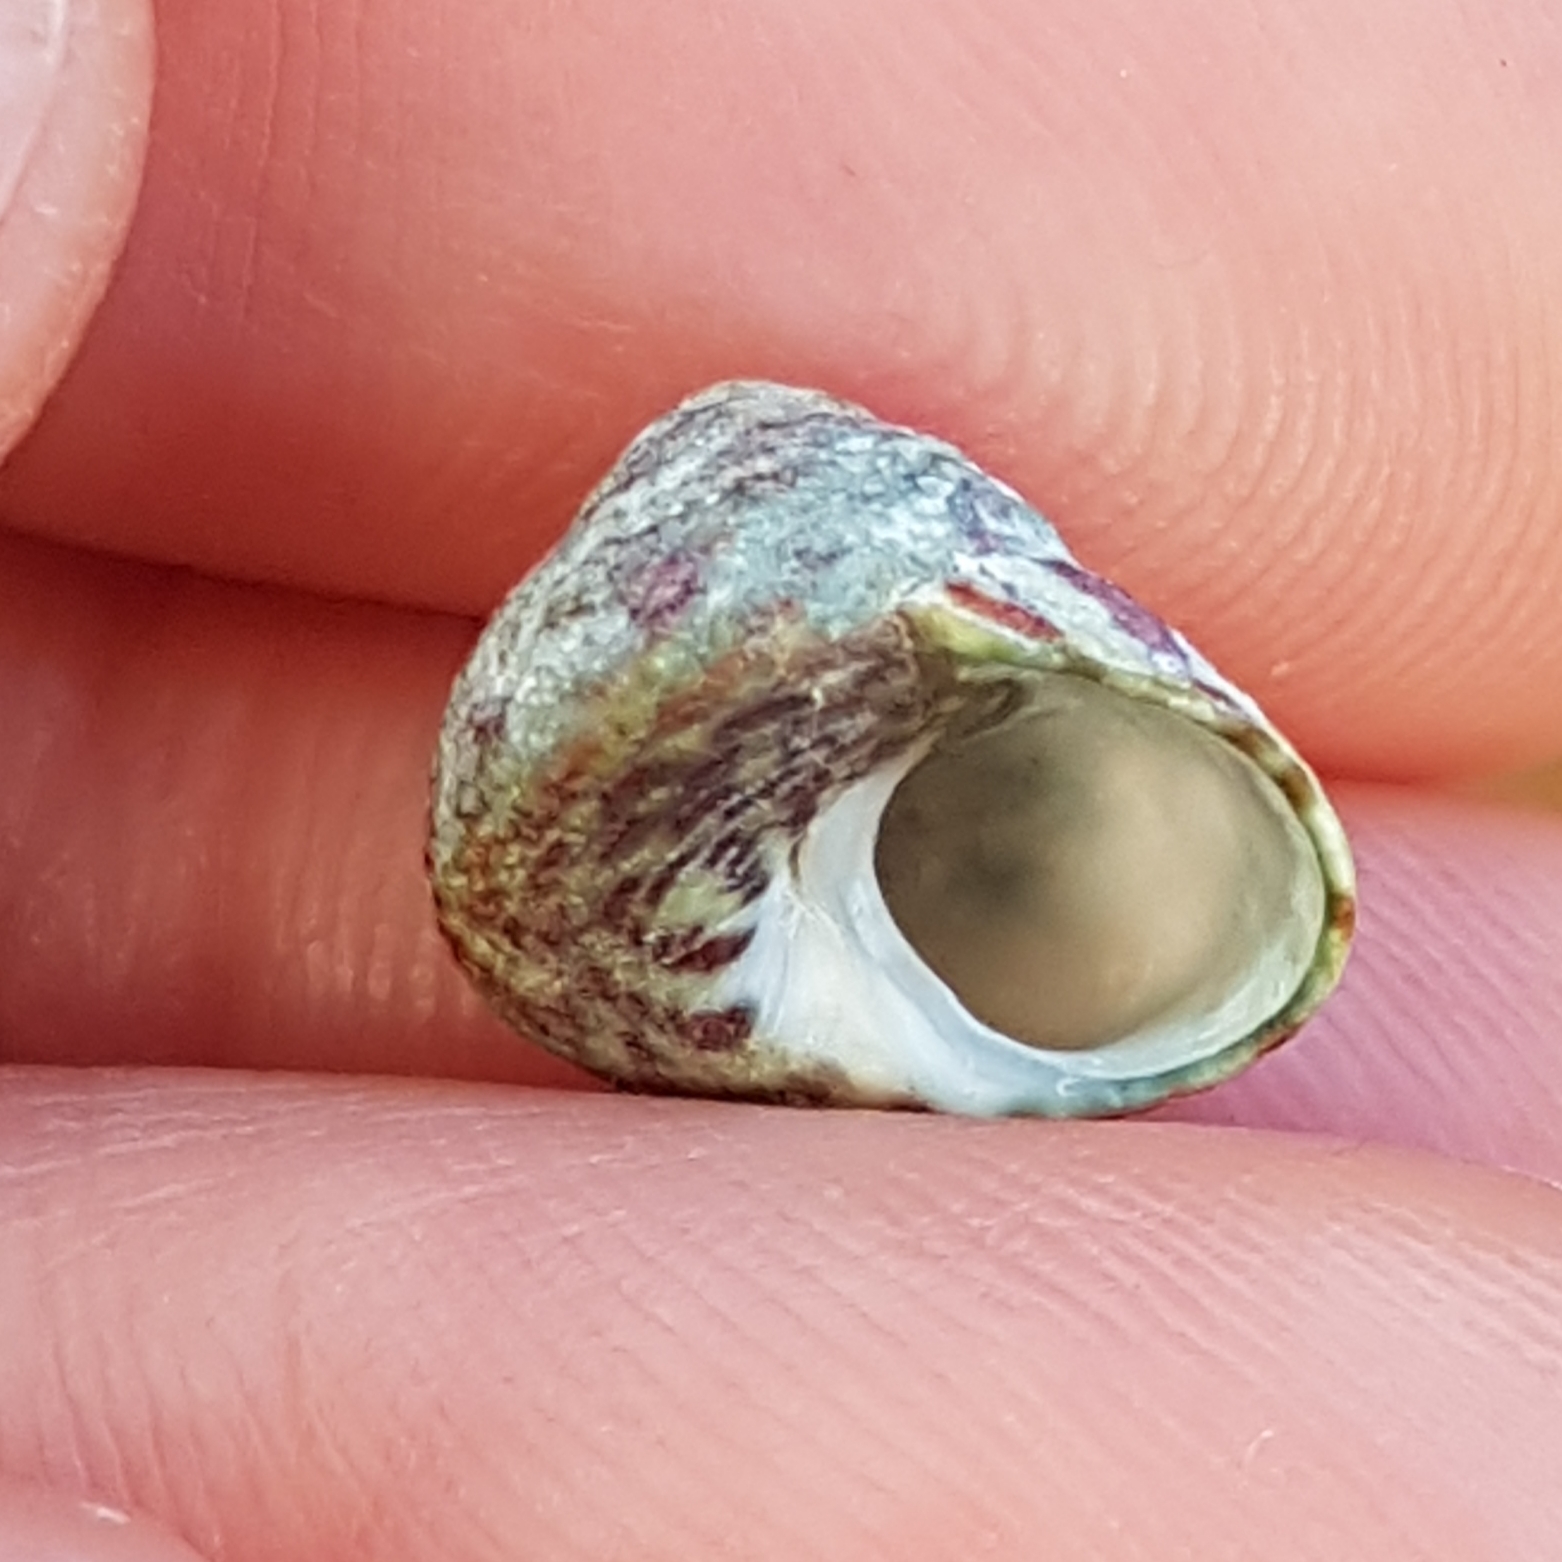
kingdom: Animalia
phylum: Mollusca
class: Gastropoda
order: Trochida
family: Trochidae
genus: Steromphala
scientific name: Steromphala pennanti
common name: Pennant's top shell
